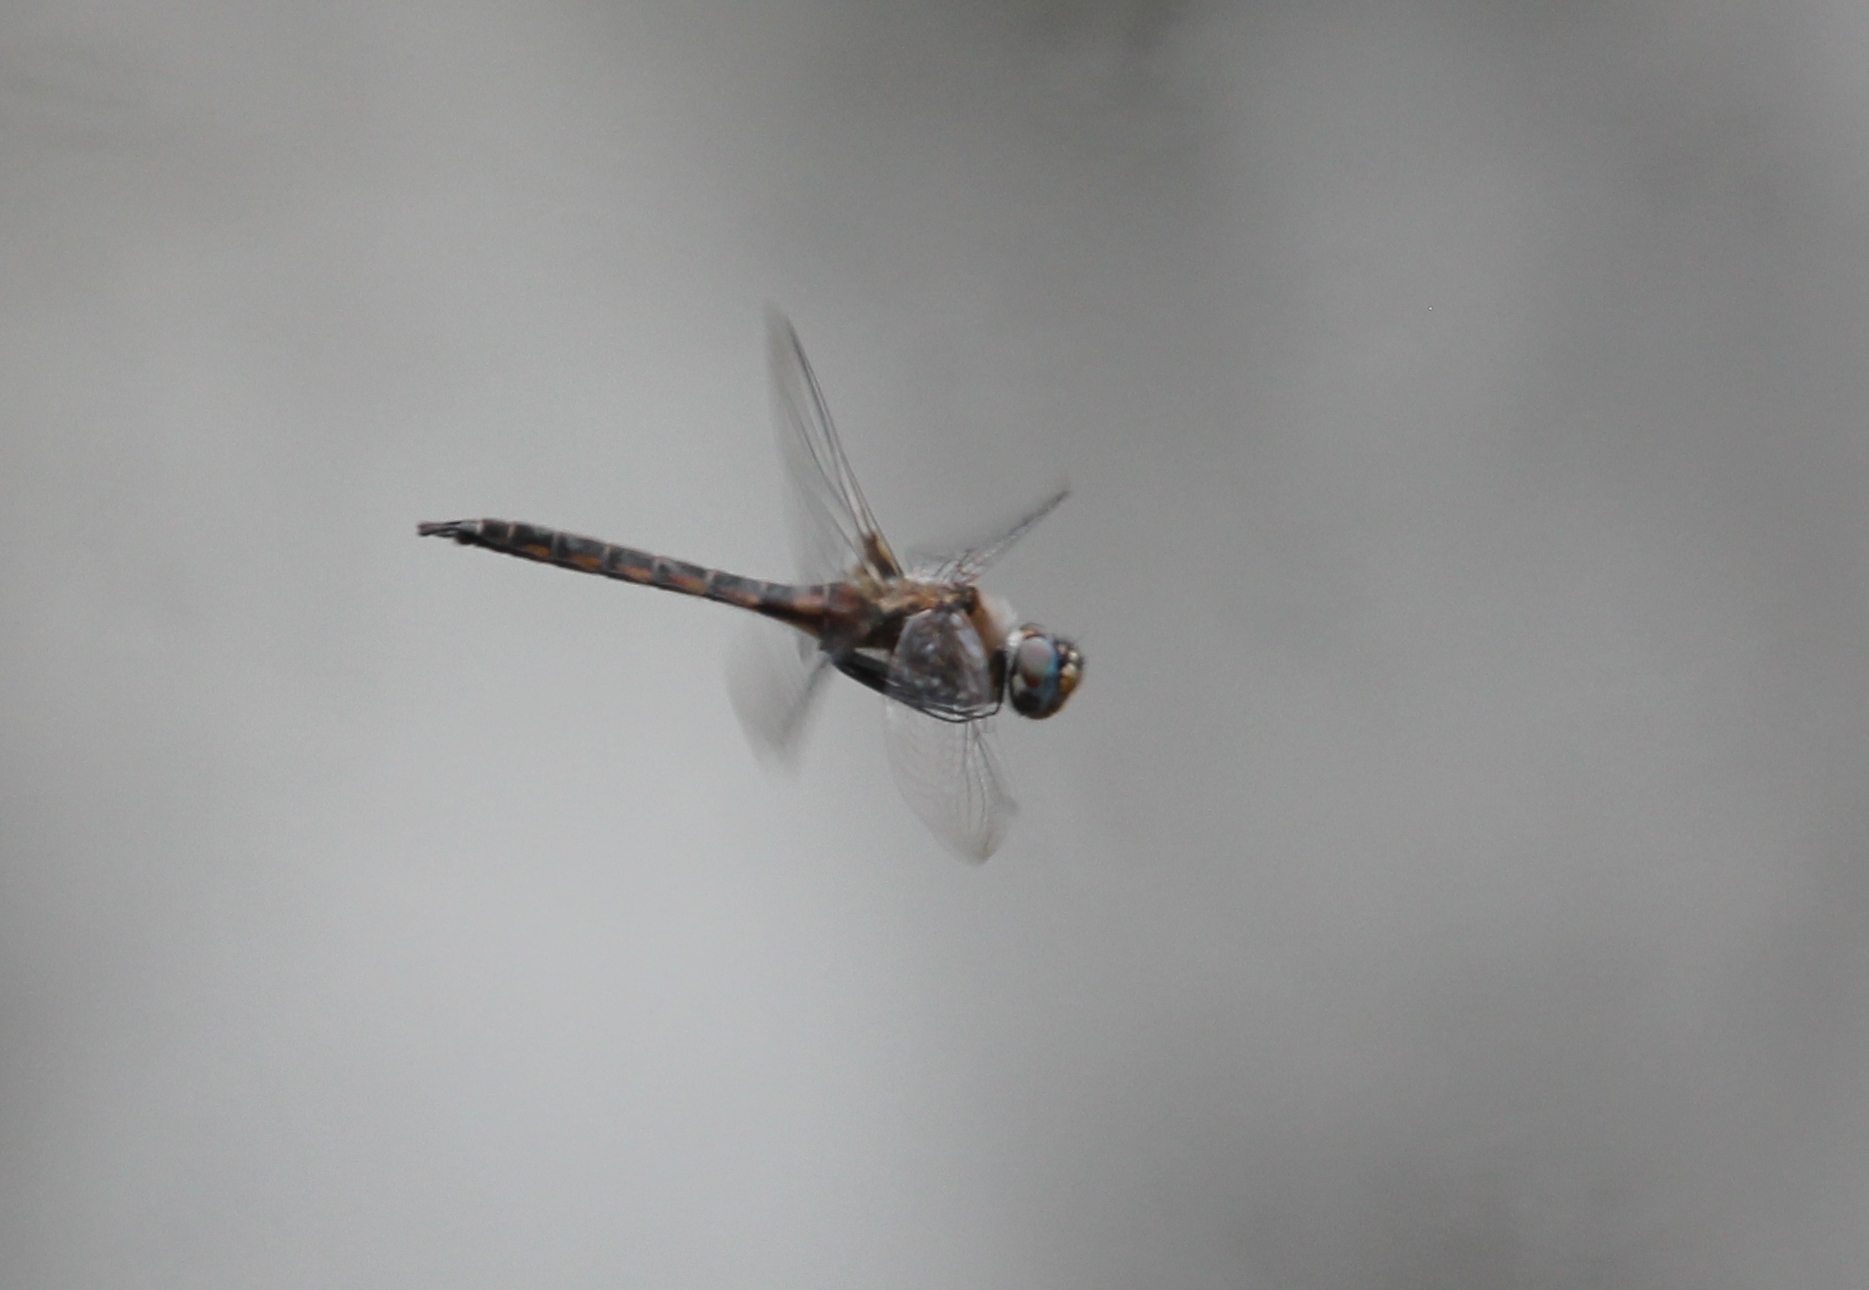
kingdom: Animalia
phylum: Arthropoda
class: Insecta
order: Odonata
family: Corduliidae
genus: Epitheca
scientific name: Epitheca cynosura
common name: Common baskettail
